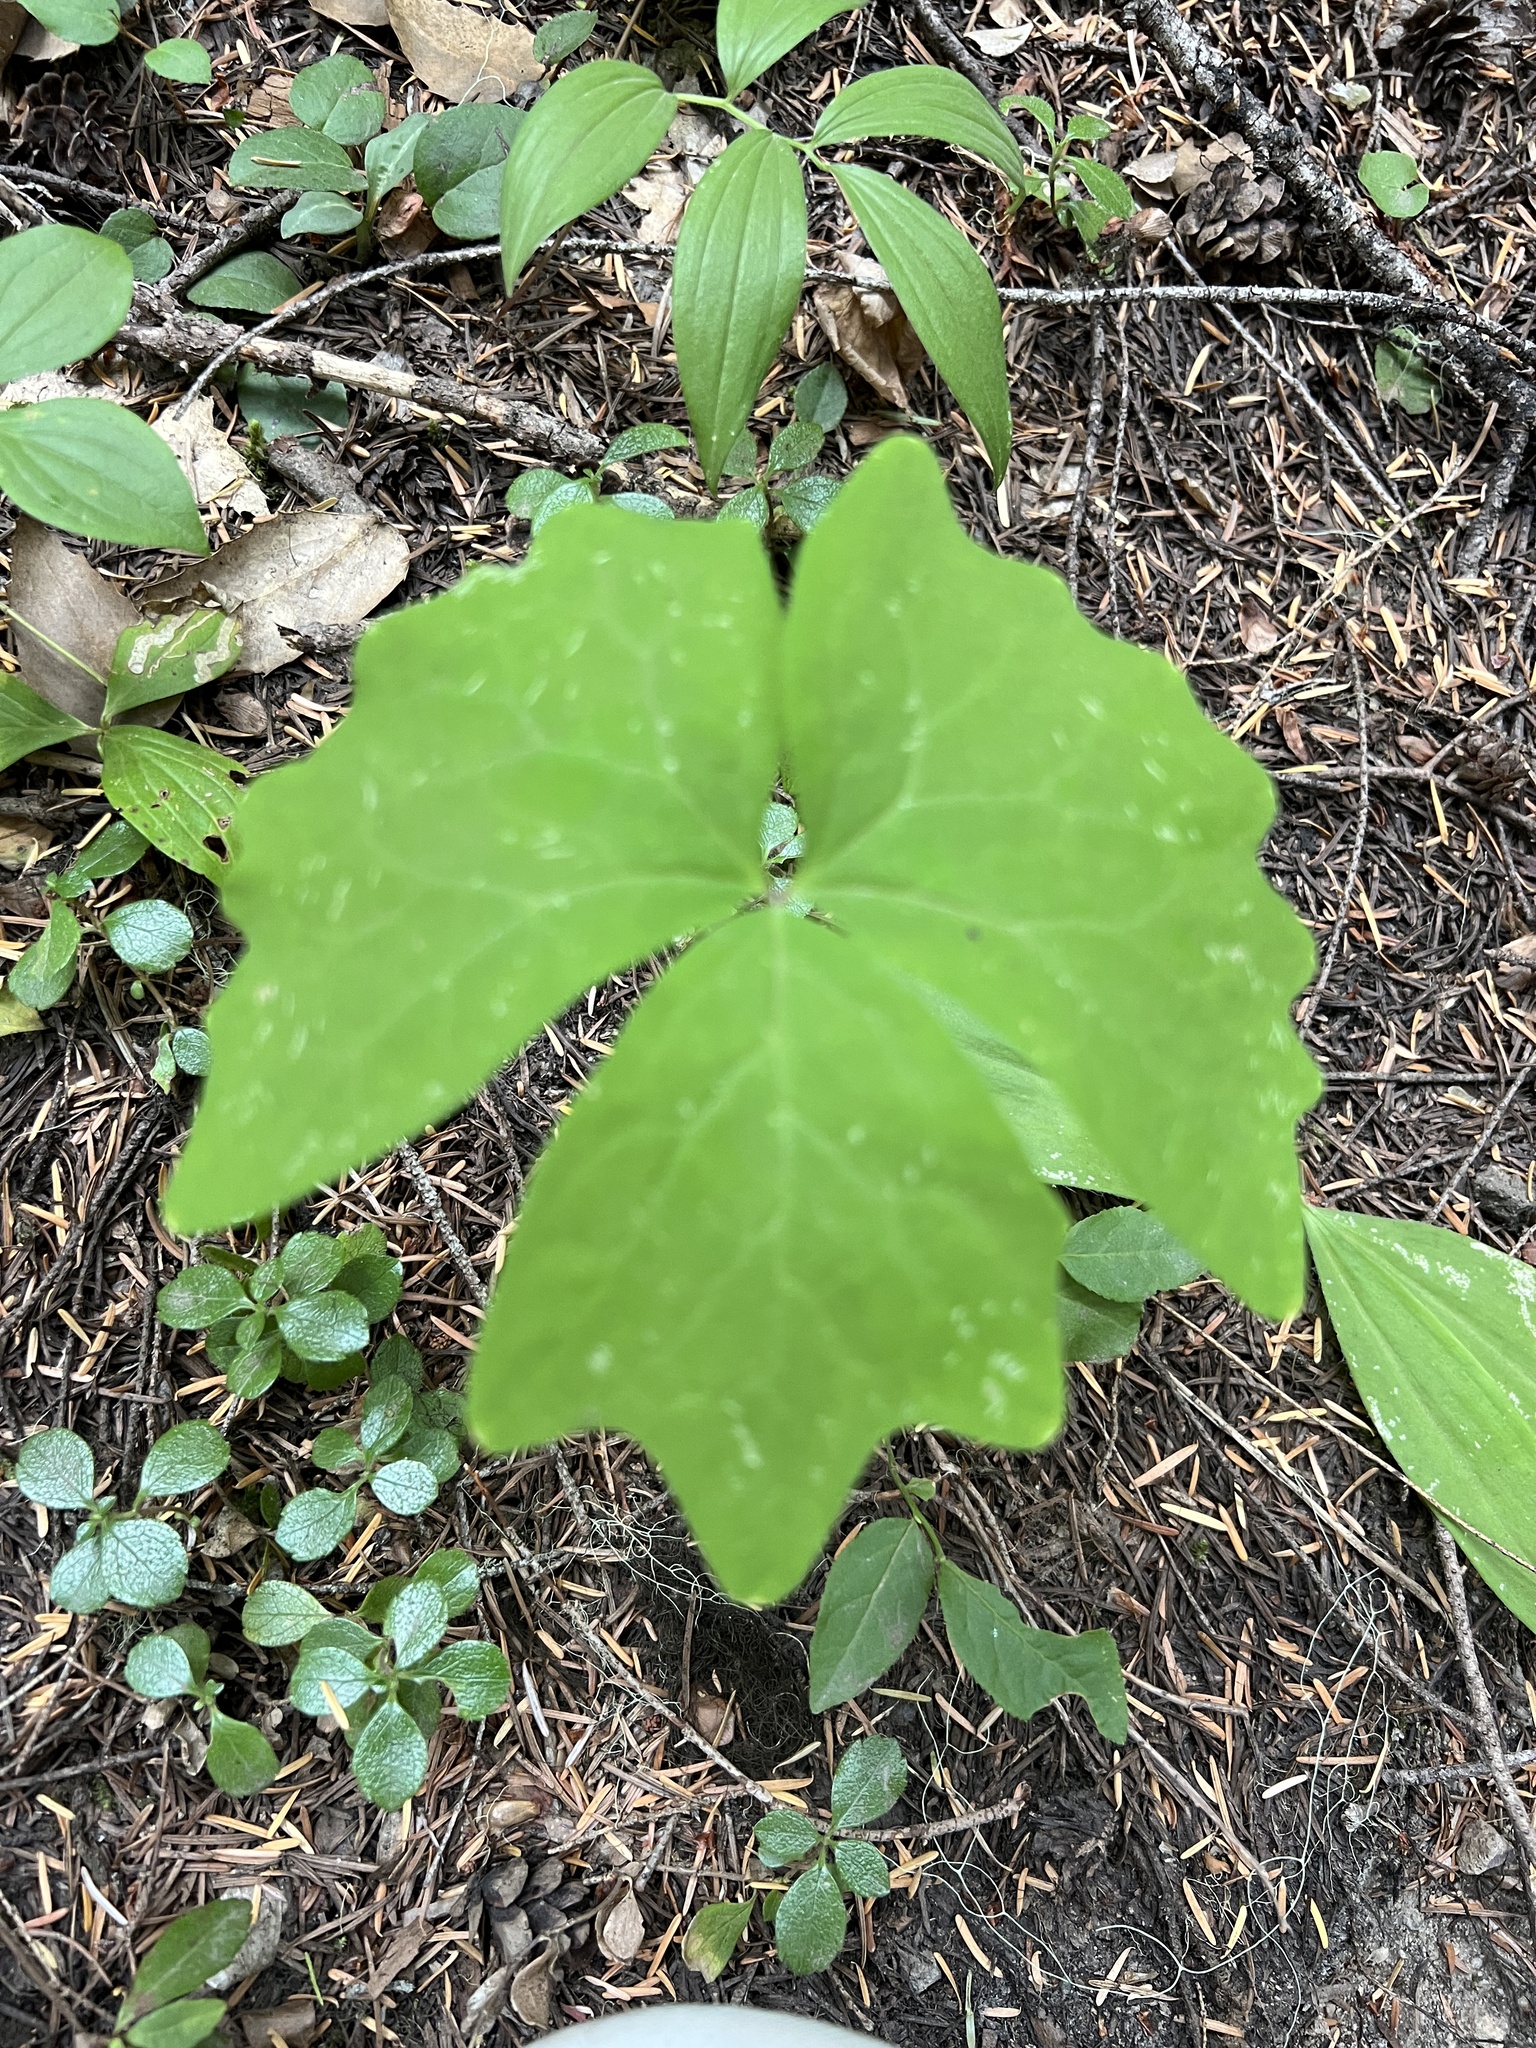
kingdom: Plantae
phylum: Tracheophyta
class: Magnoliopsida
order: Ranunculales
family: Berberidaceae
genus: Achlys
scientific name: Achlys triphylla
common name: Vanilla-leaf
